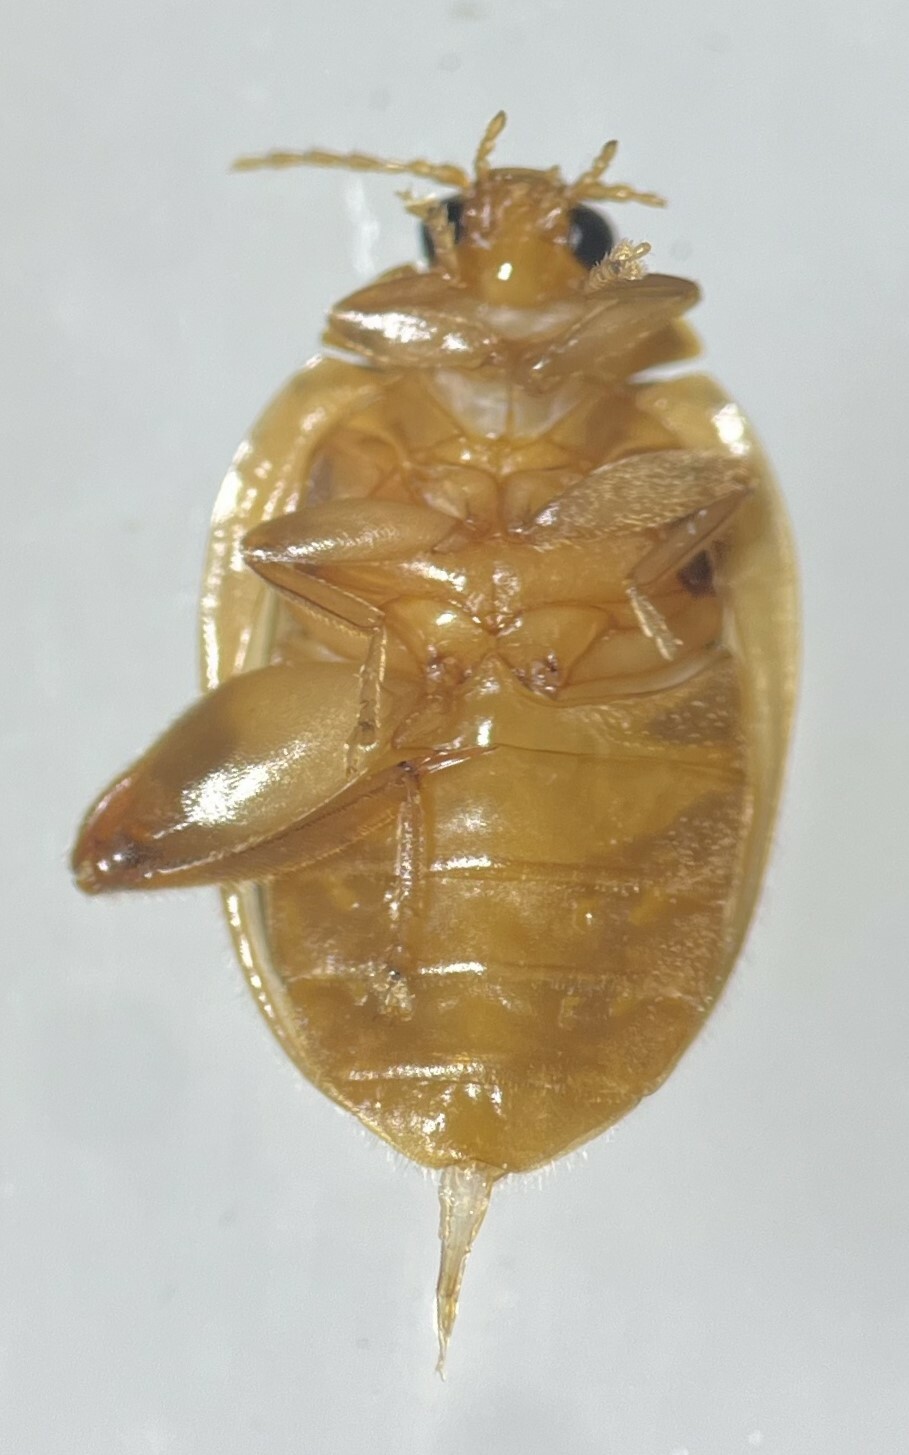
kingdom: Animalia
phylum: Arthropoda
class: Insecta
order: Coleoptera
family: Scirtidae
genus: Ora
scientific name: Ora discoidea
